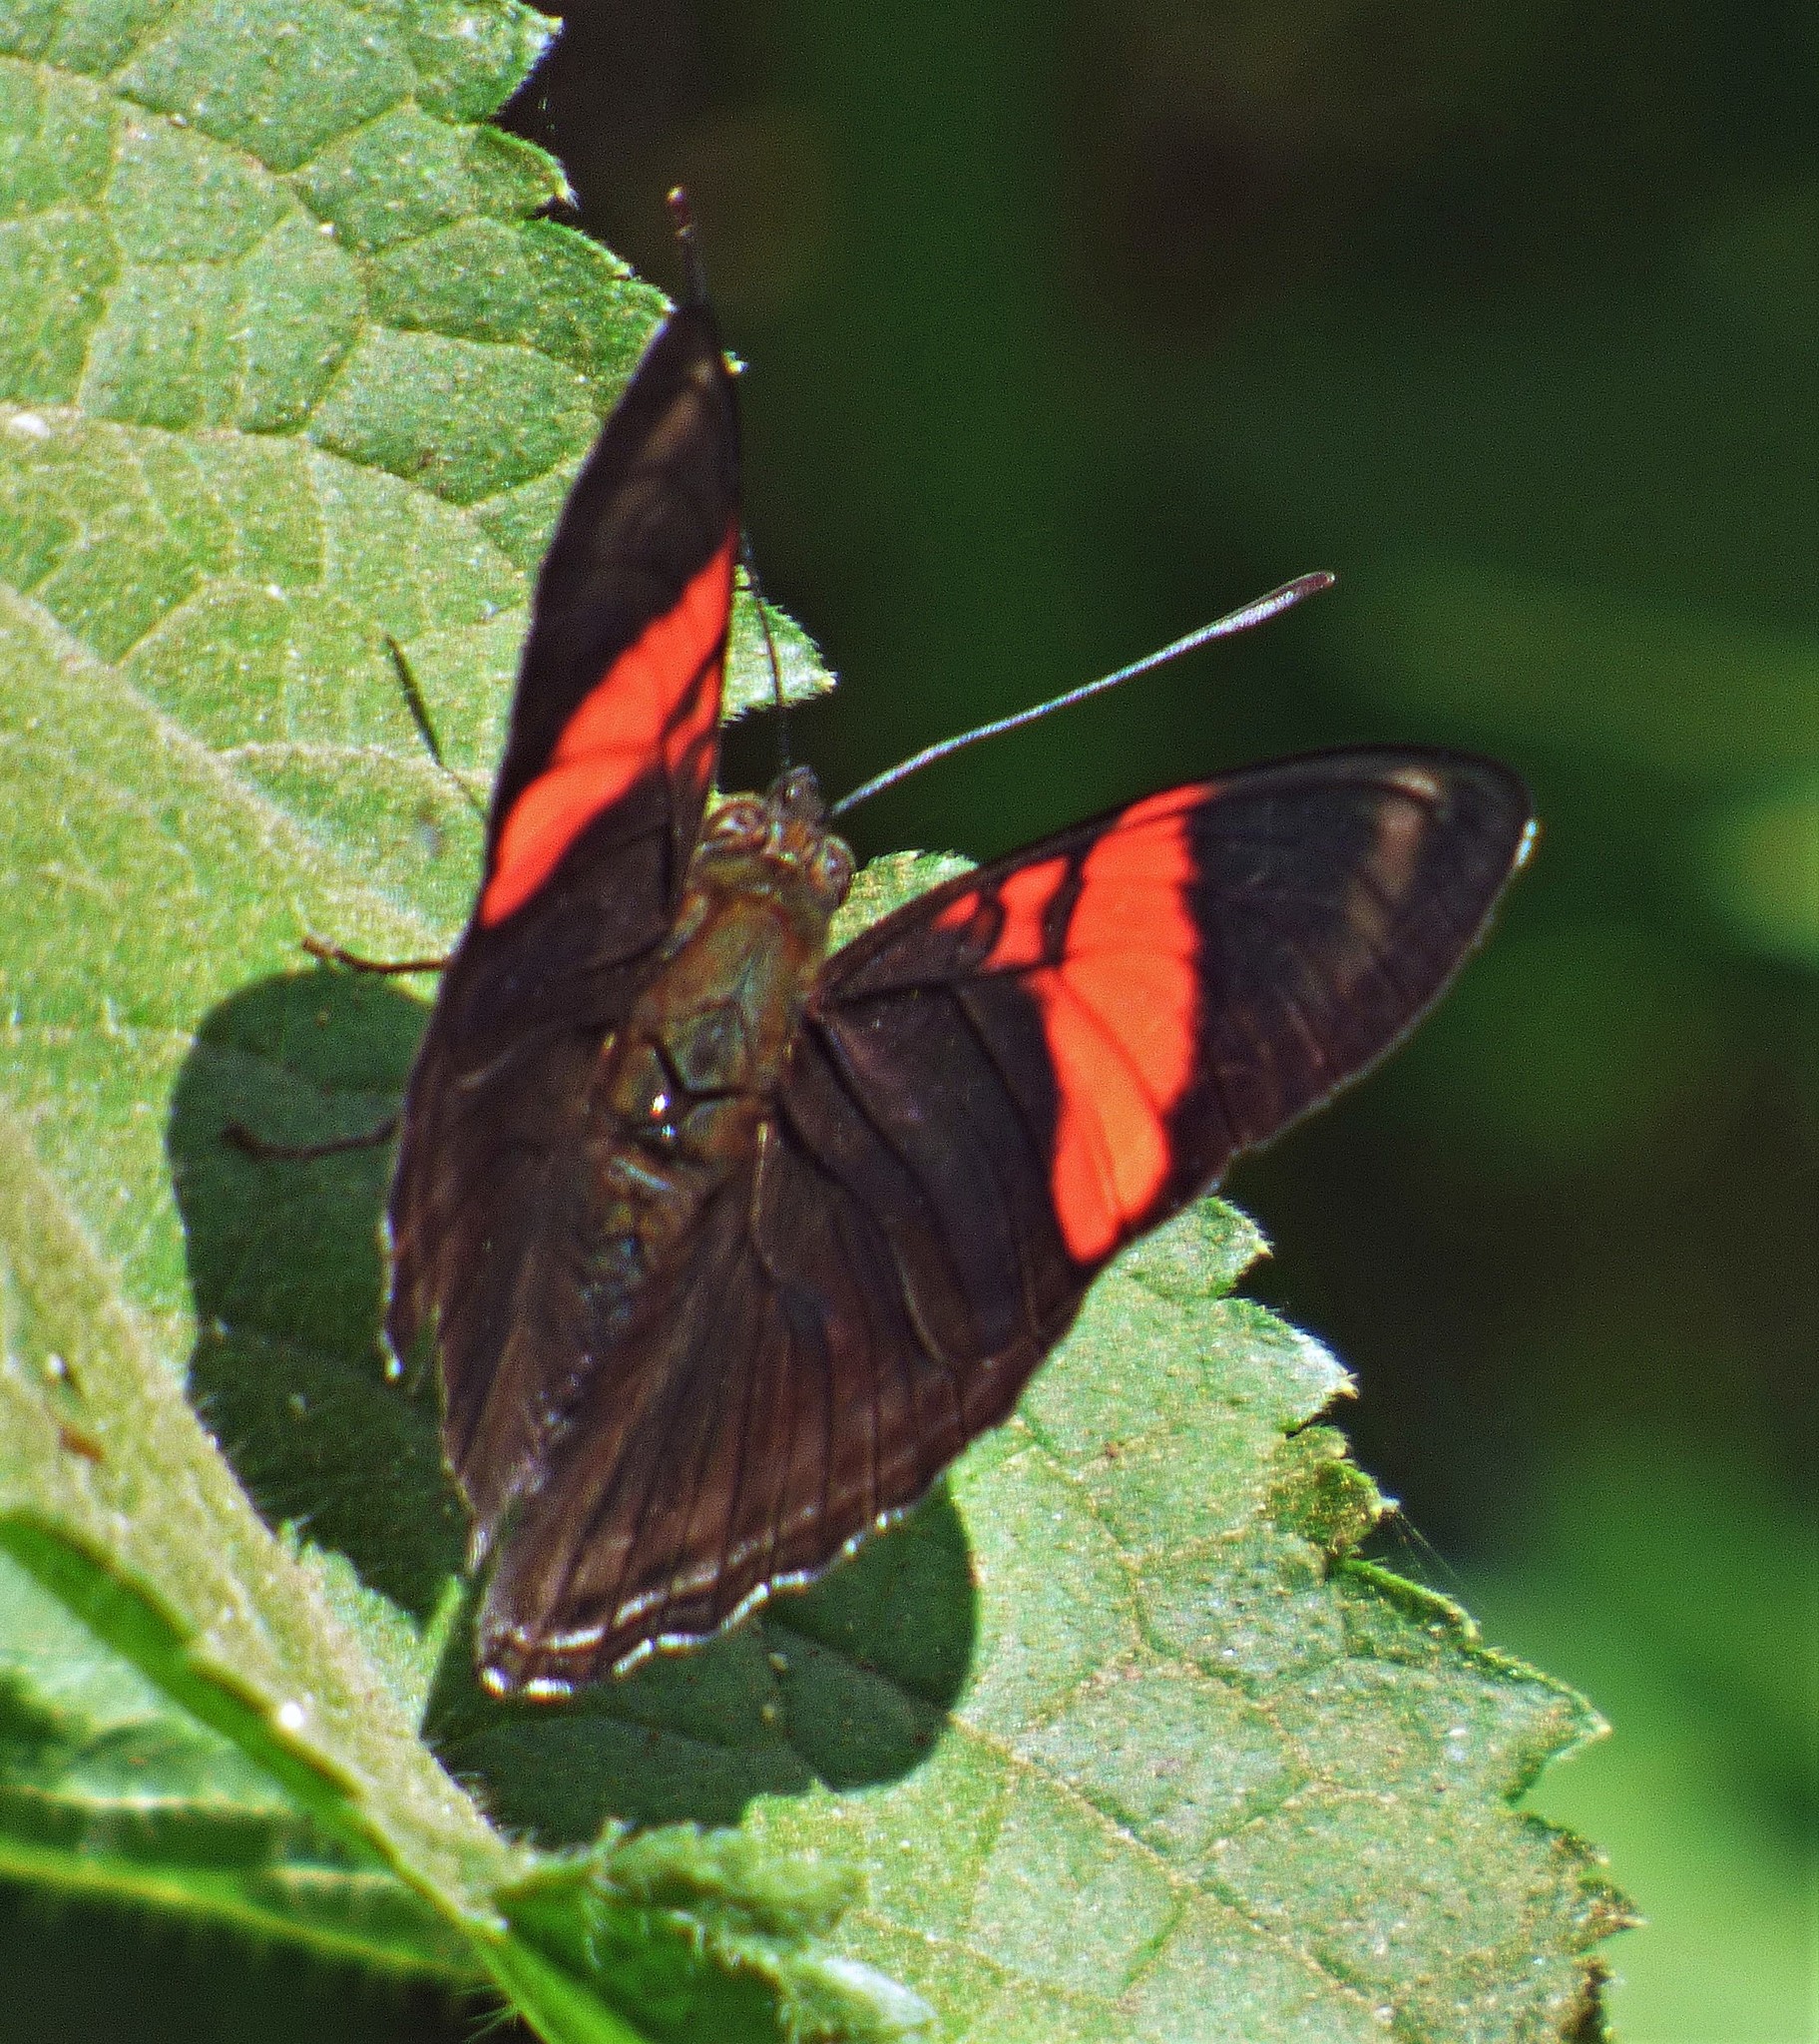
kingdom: Animalia
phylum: Arthropoda
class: Insecta
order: Lepidoptera
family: Nymphalidae
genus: Limenitis
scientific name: Limenitis isis
